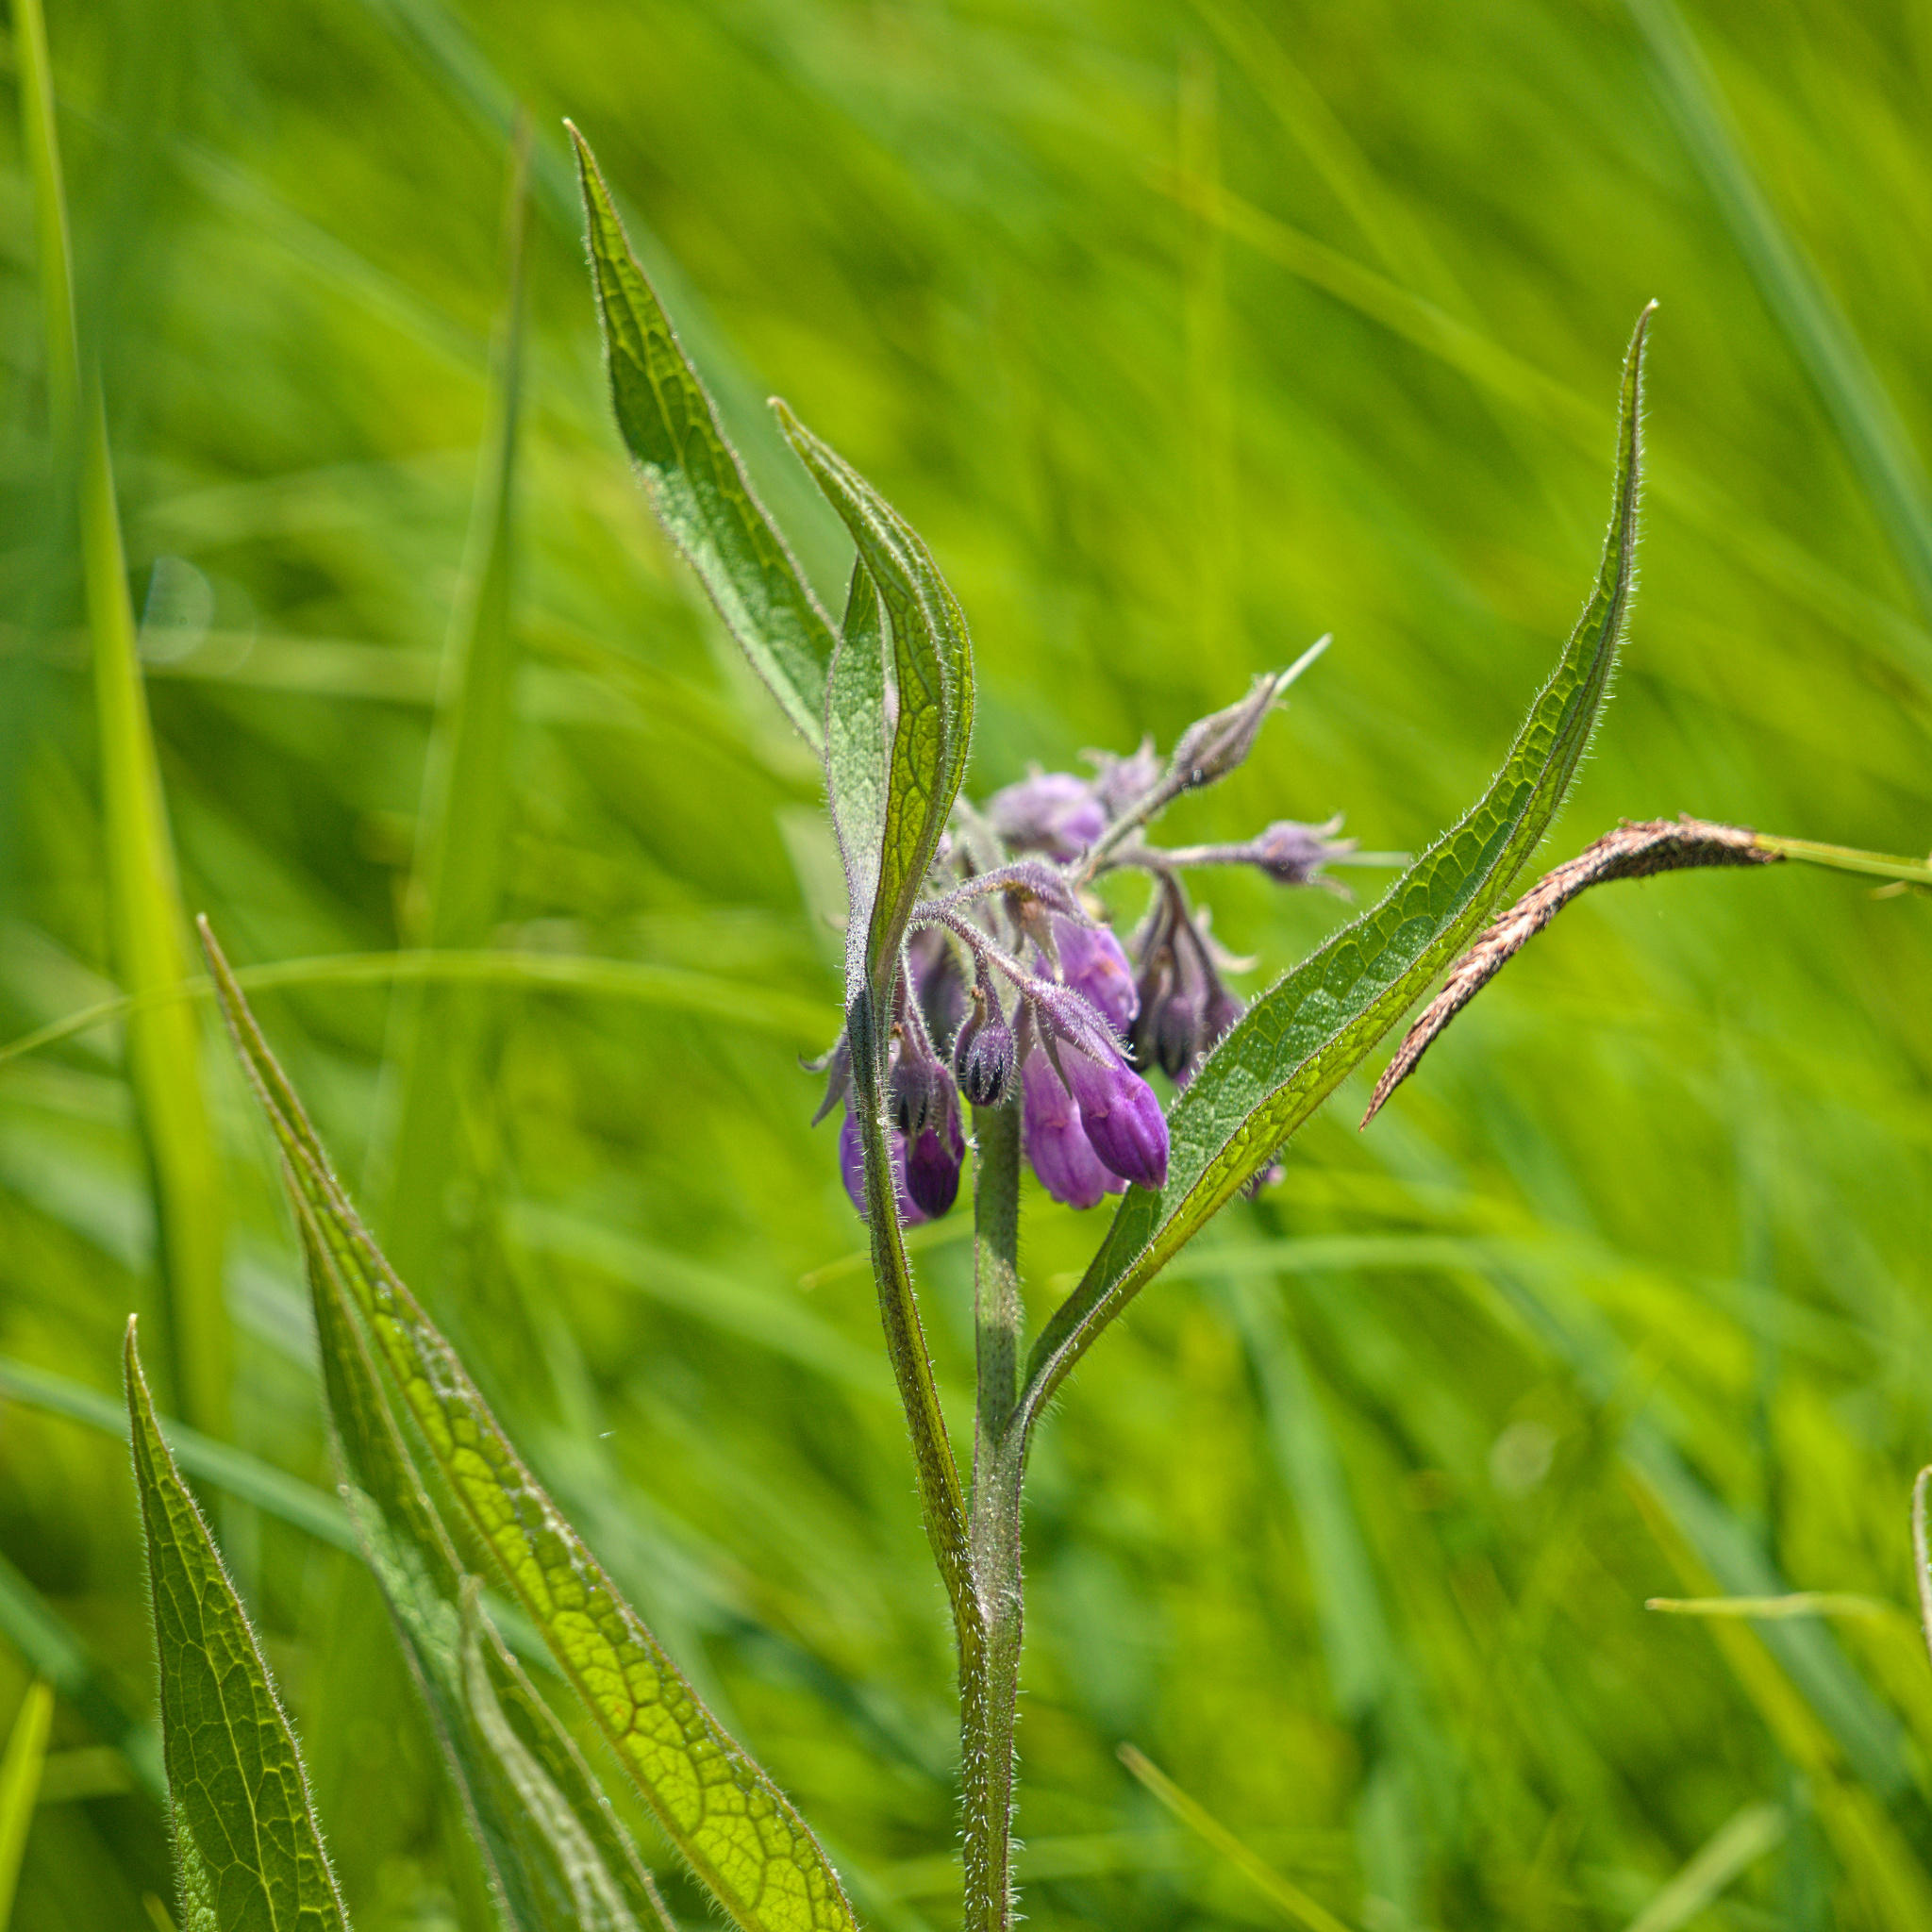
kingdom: Plantae
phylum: Tracheophyta
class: Magnoliopsida
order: Boraginales
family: Boraginaceae
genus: Symphytum
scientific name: Symphytum officinale
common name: Common comfrey
